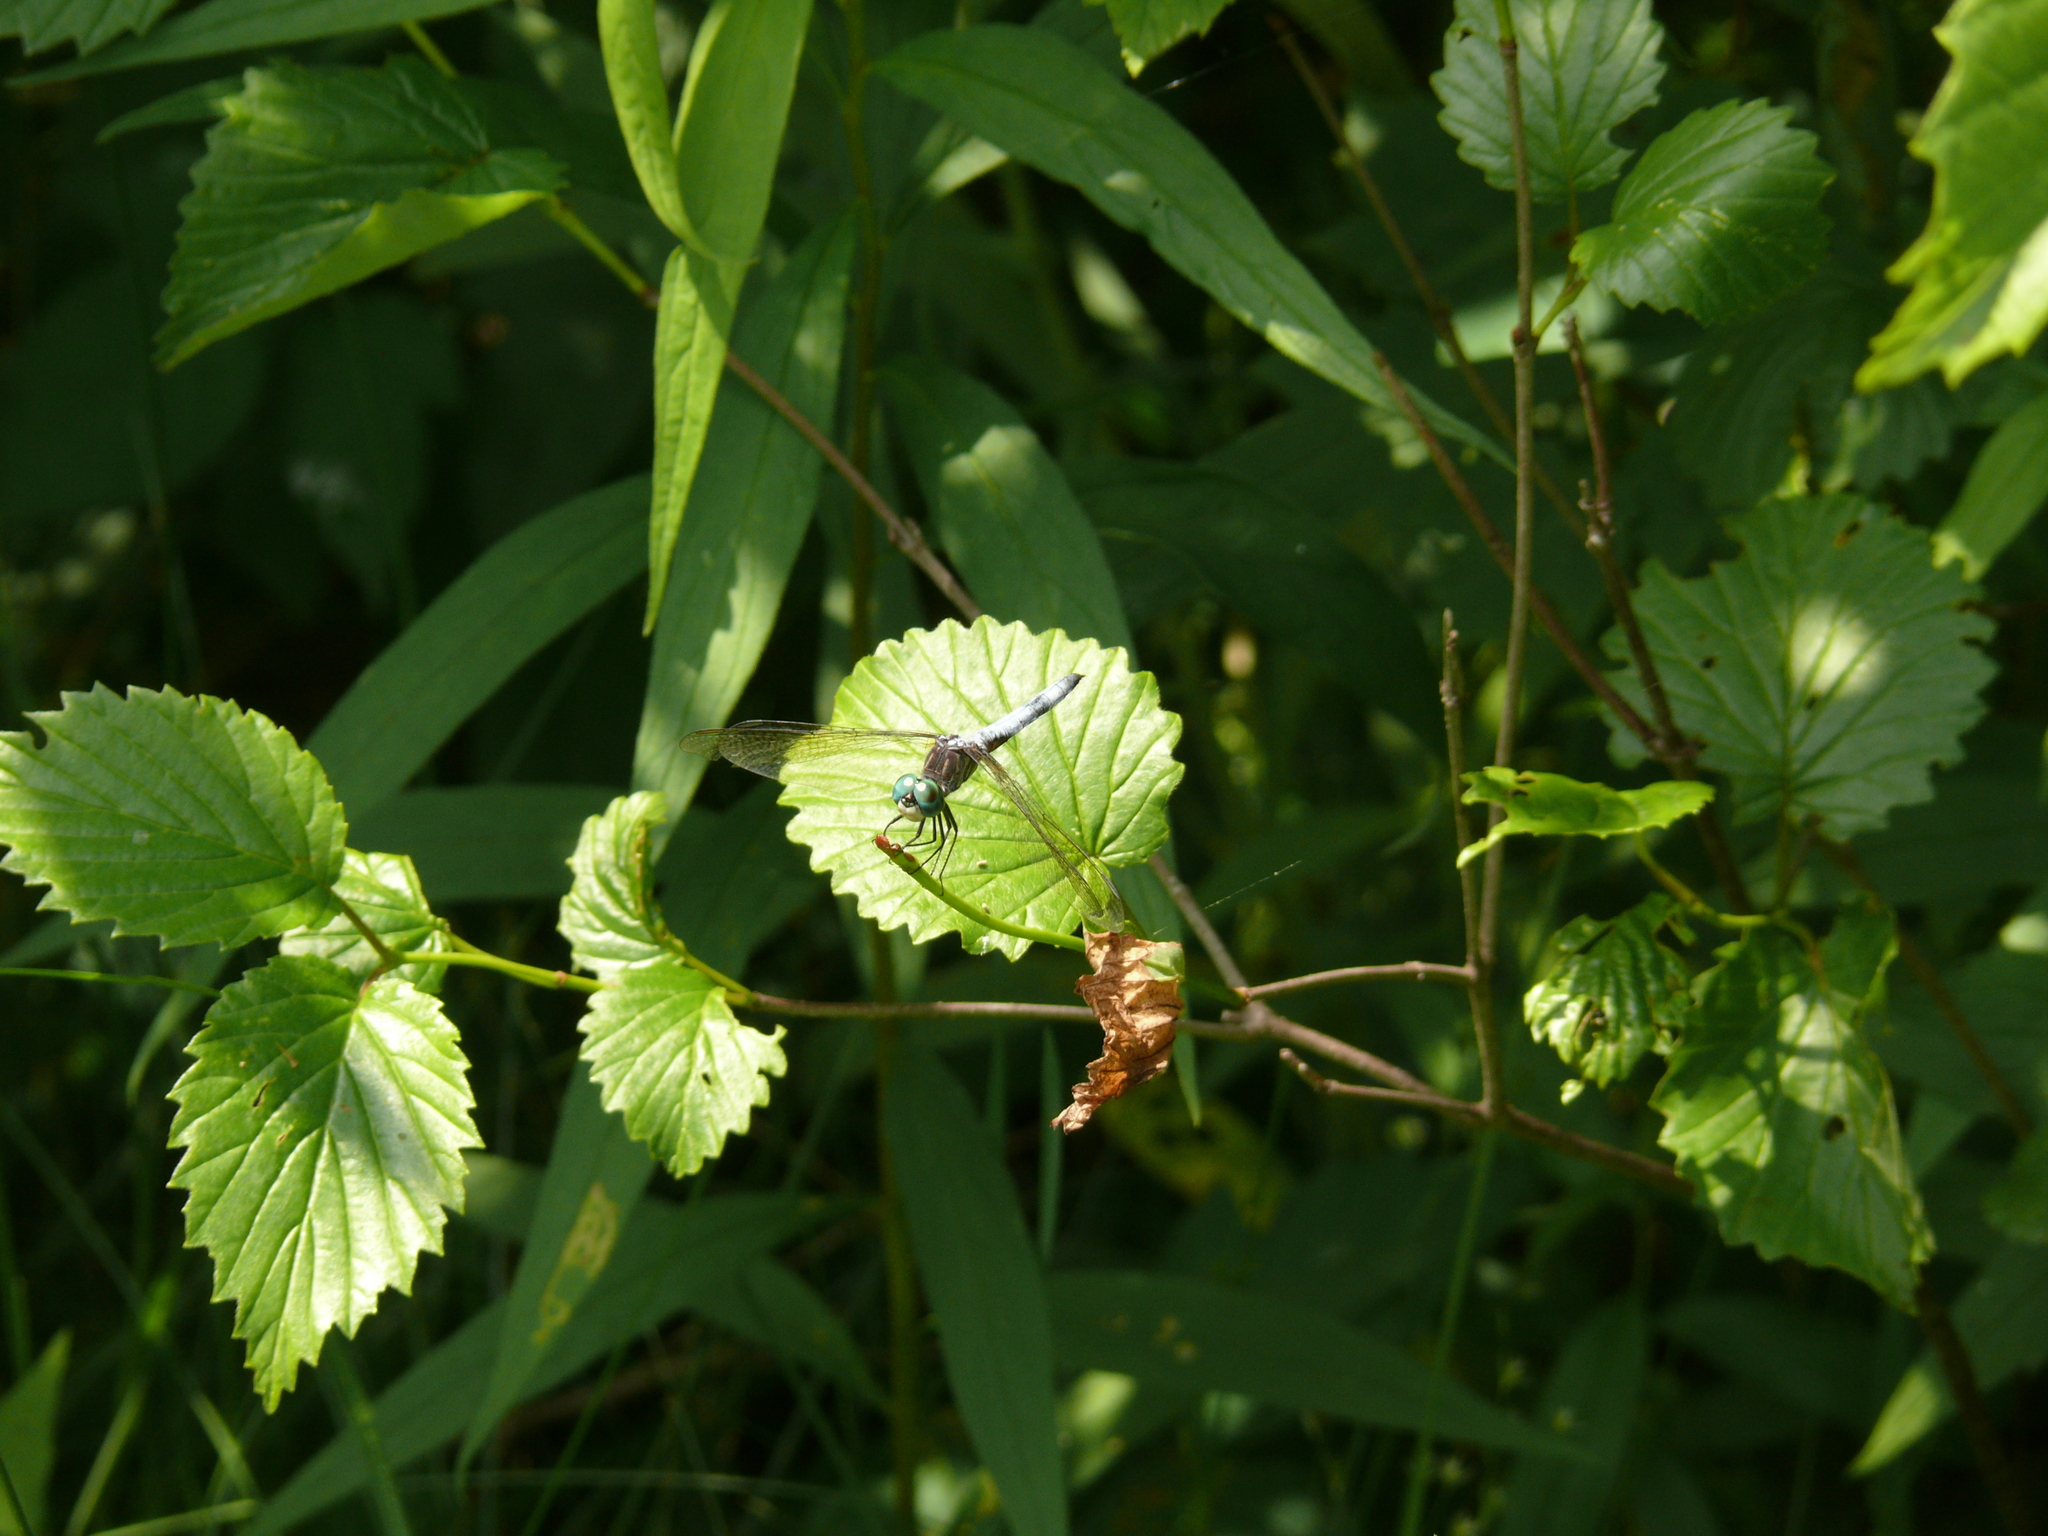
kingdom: Animalia
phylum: Arthropoda
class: Insecta
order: Odonata
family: Libellulidae
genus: Pachydiplax
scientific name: Pachydiplax longipennis
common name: Blue dasher
